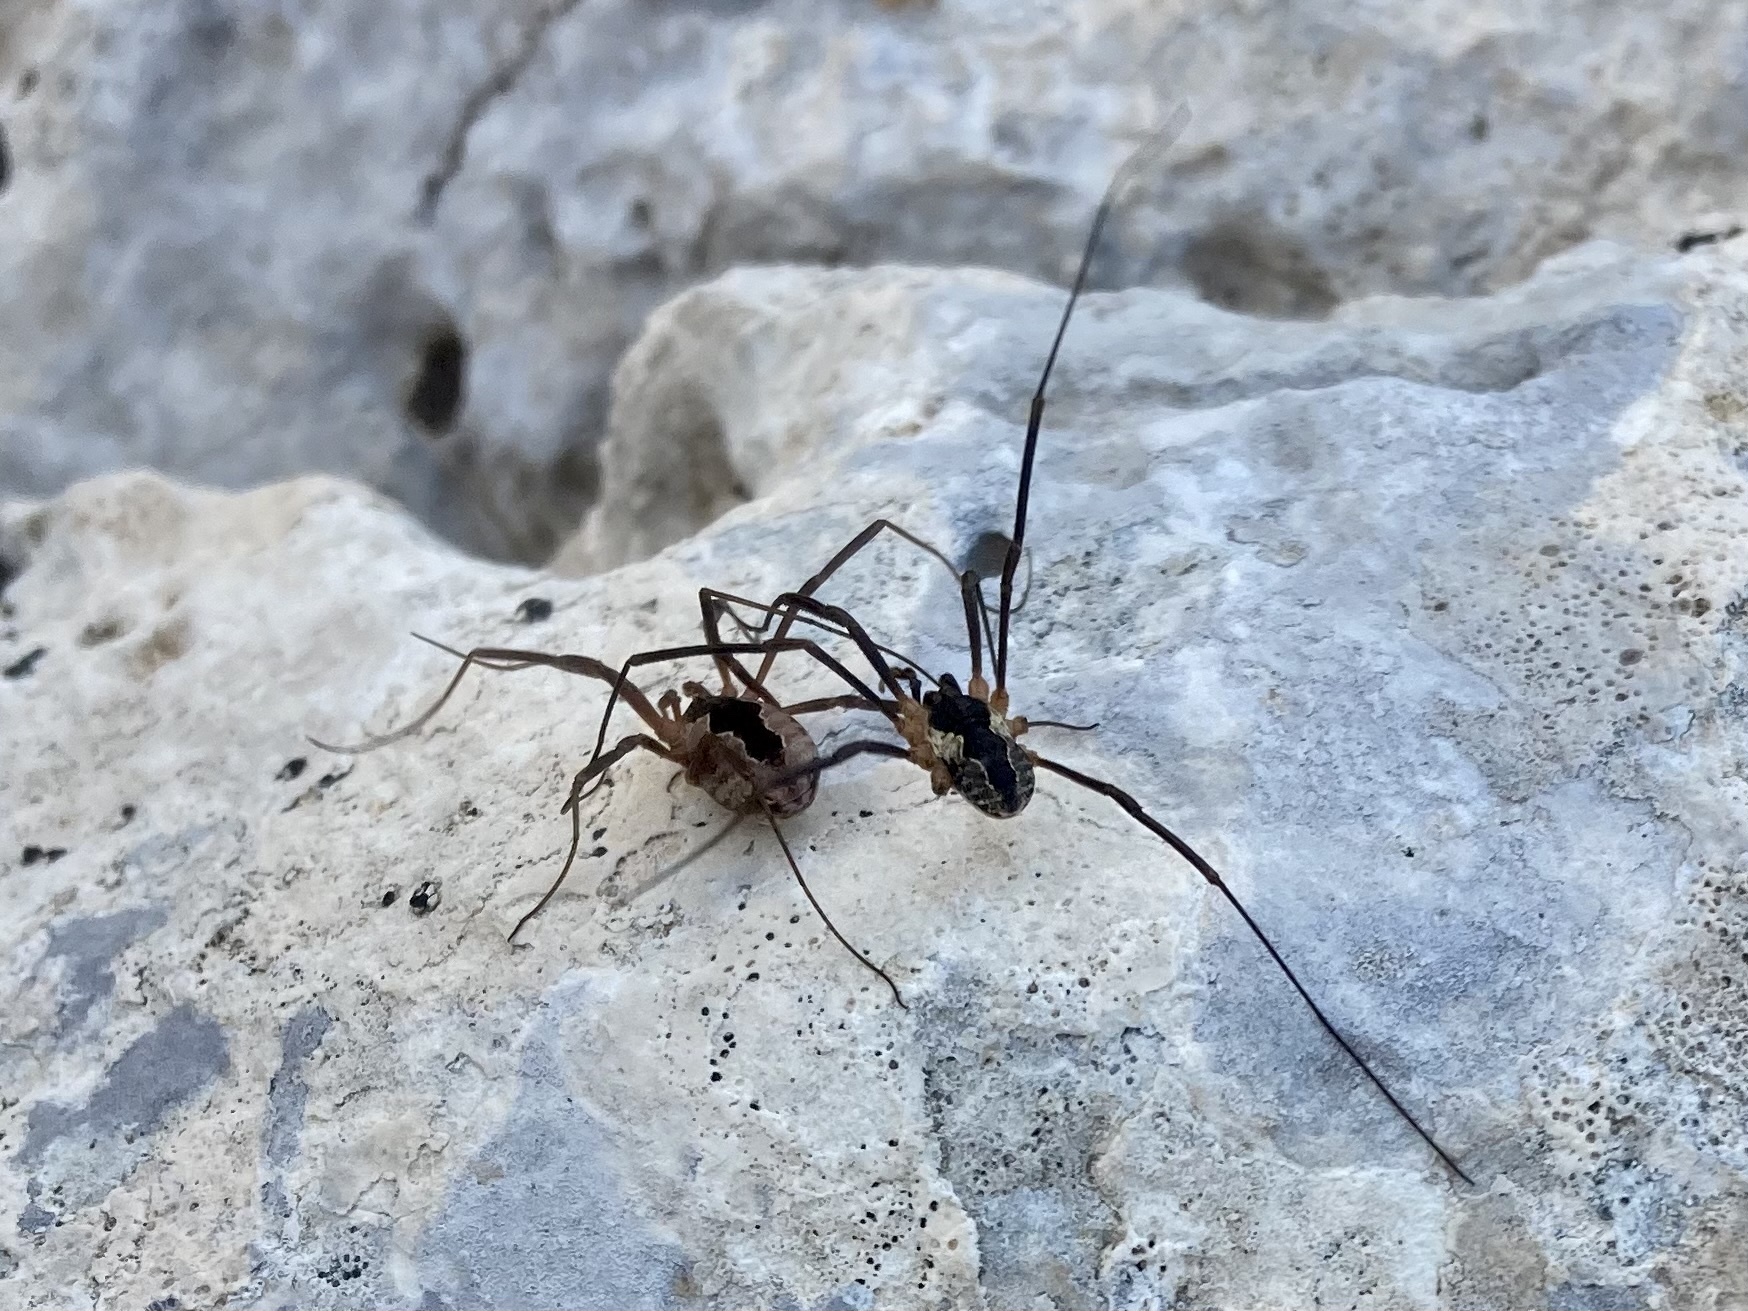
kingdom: Animalia
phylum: Arthropoda
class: Arachnida
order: Opiliones
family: Phalangiidae
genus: Mitopus
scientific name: Mitopus morio
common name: Saddleback harvestman
